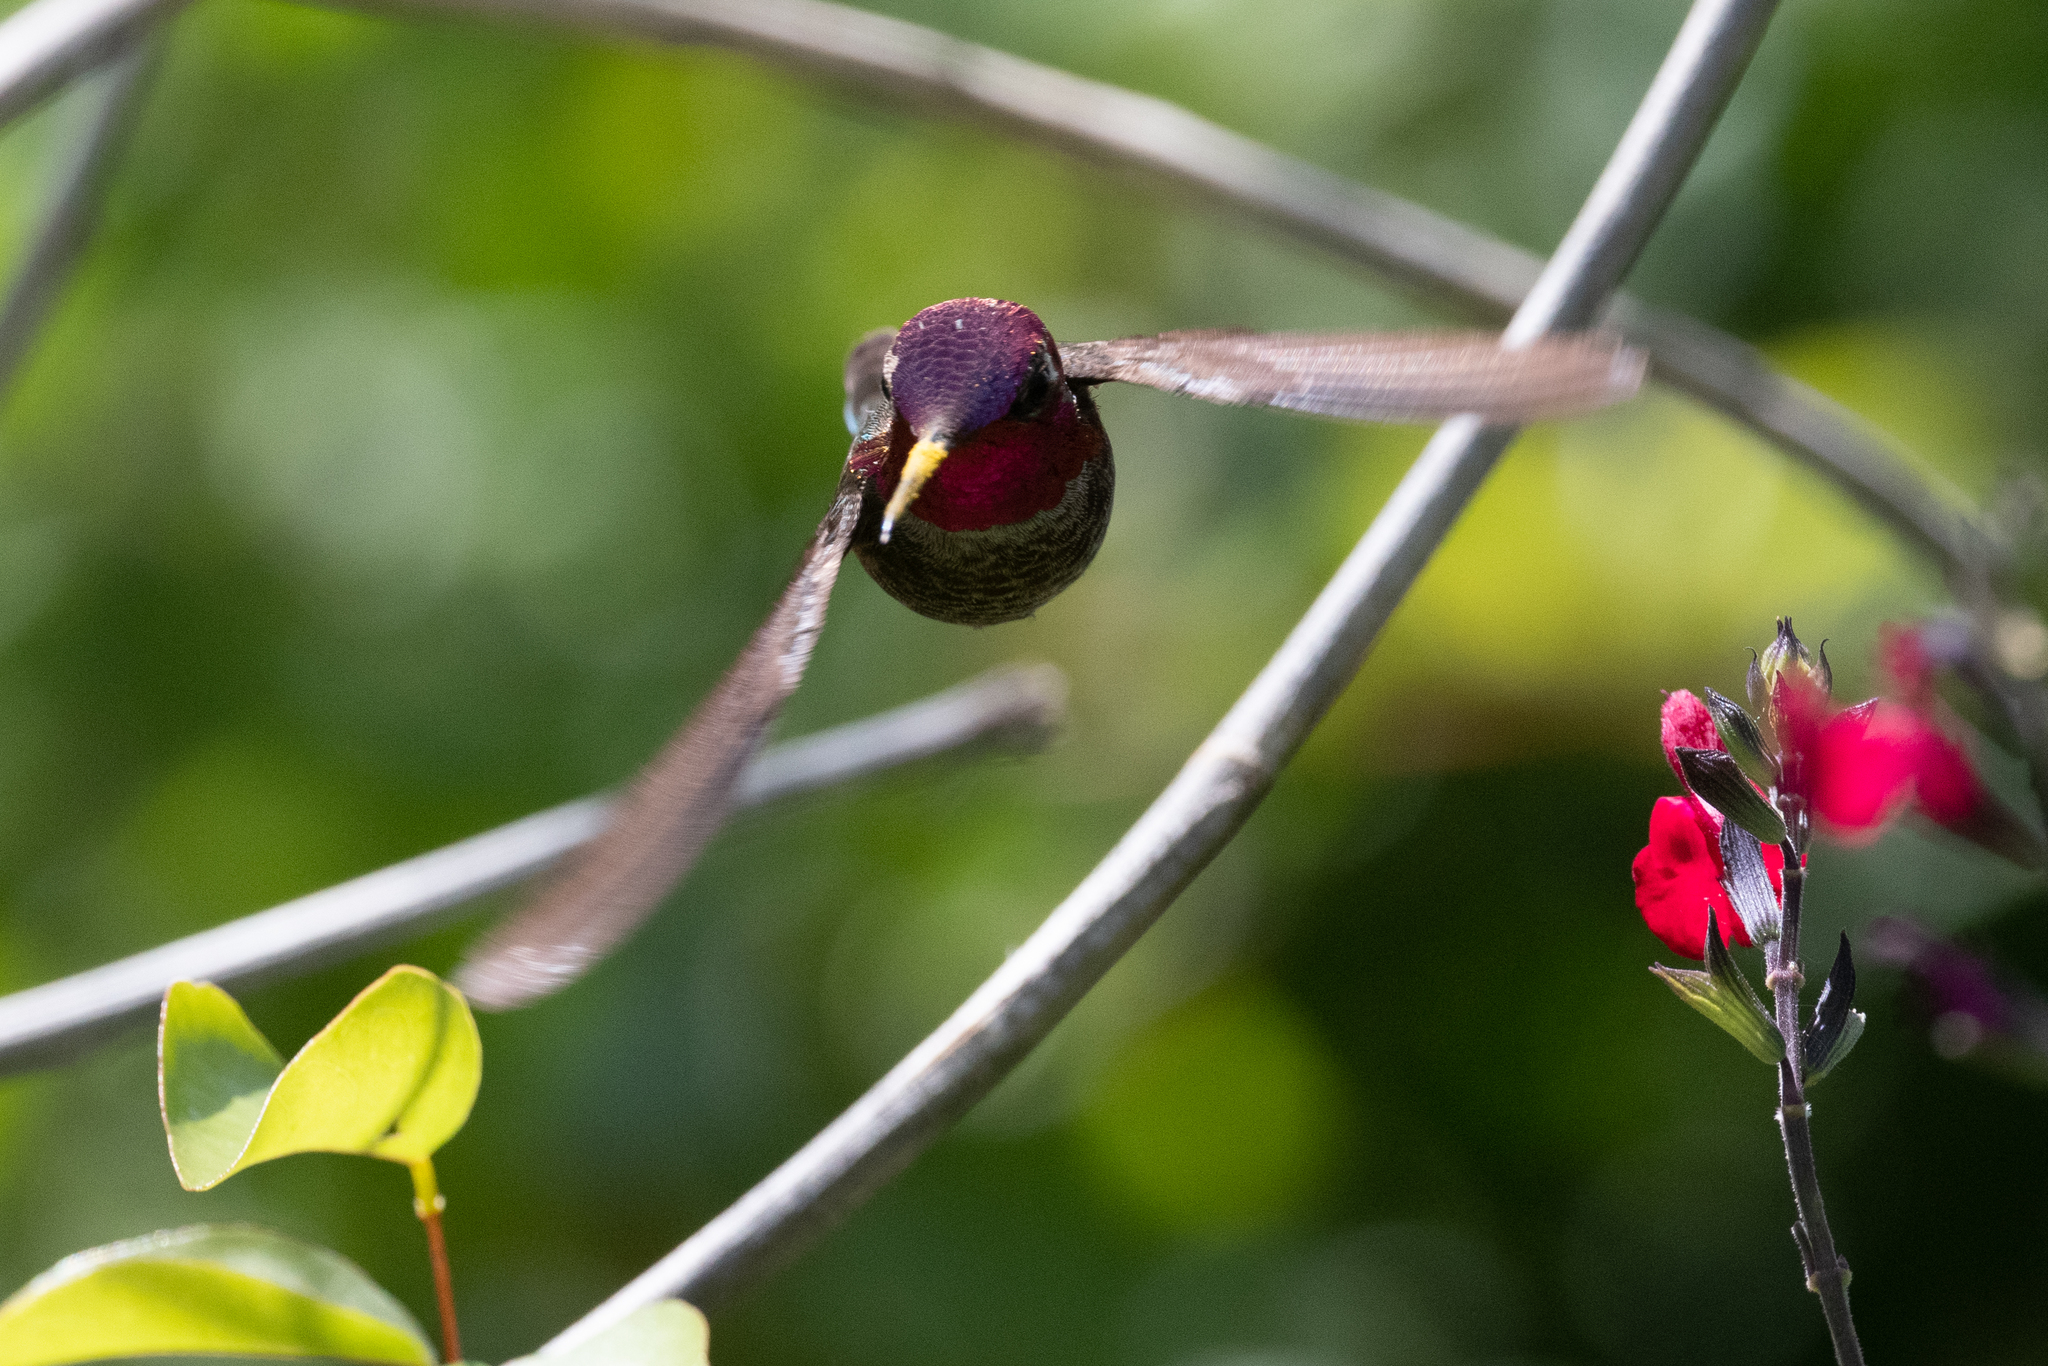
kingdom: Animalia
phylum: Chordata
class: Aves
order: Apodiformes
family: Trochilidae
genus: Calypte
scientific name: Calypte anna
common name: Anna's hummingbird
